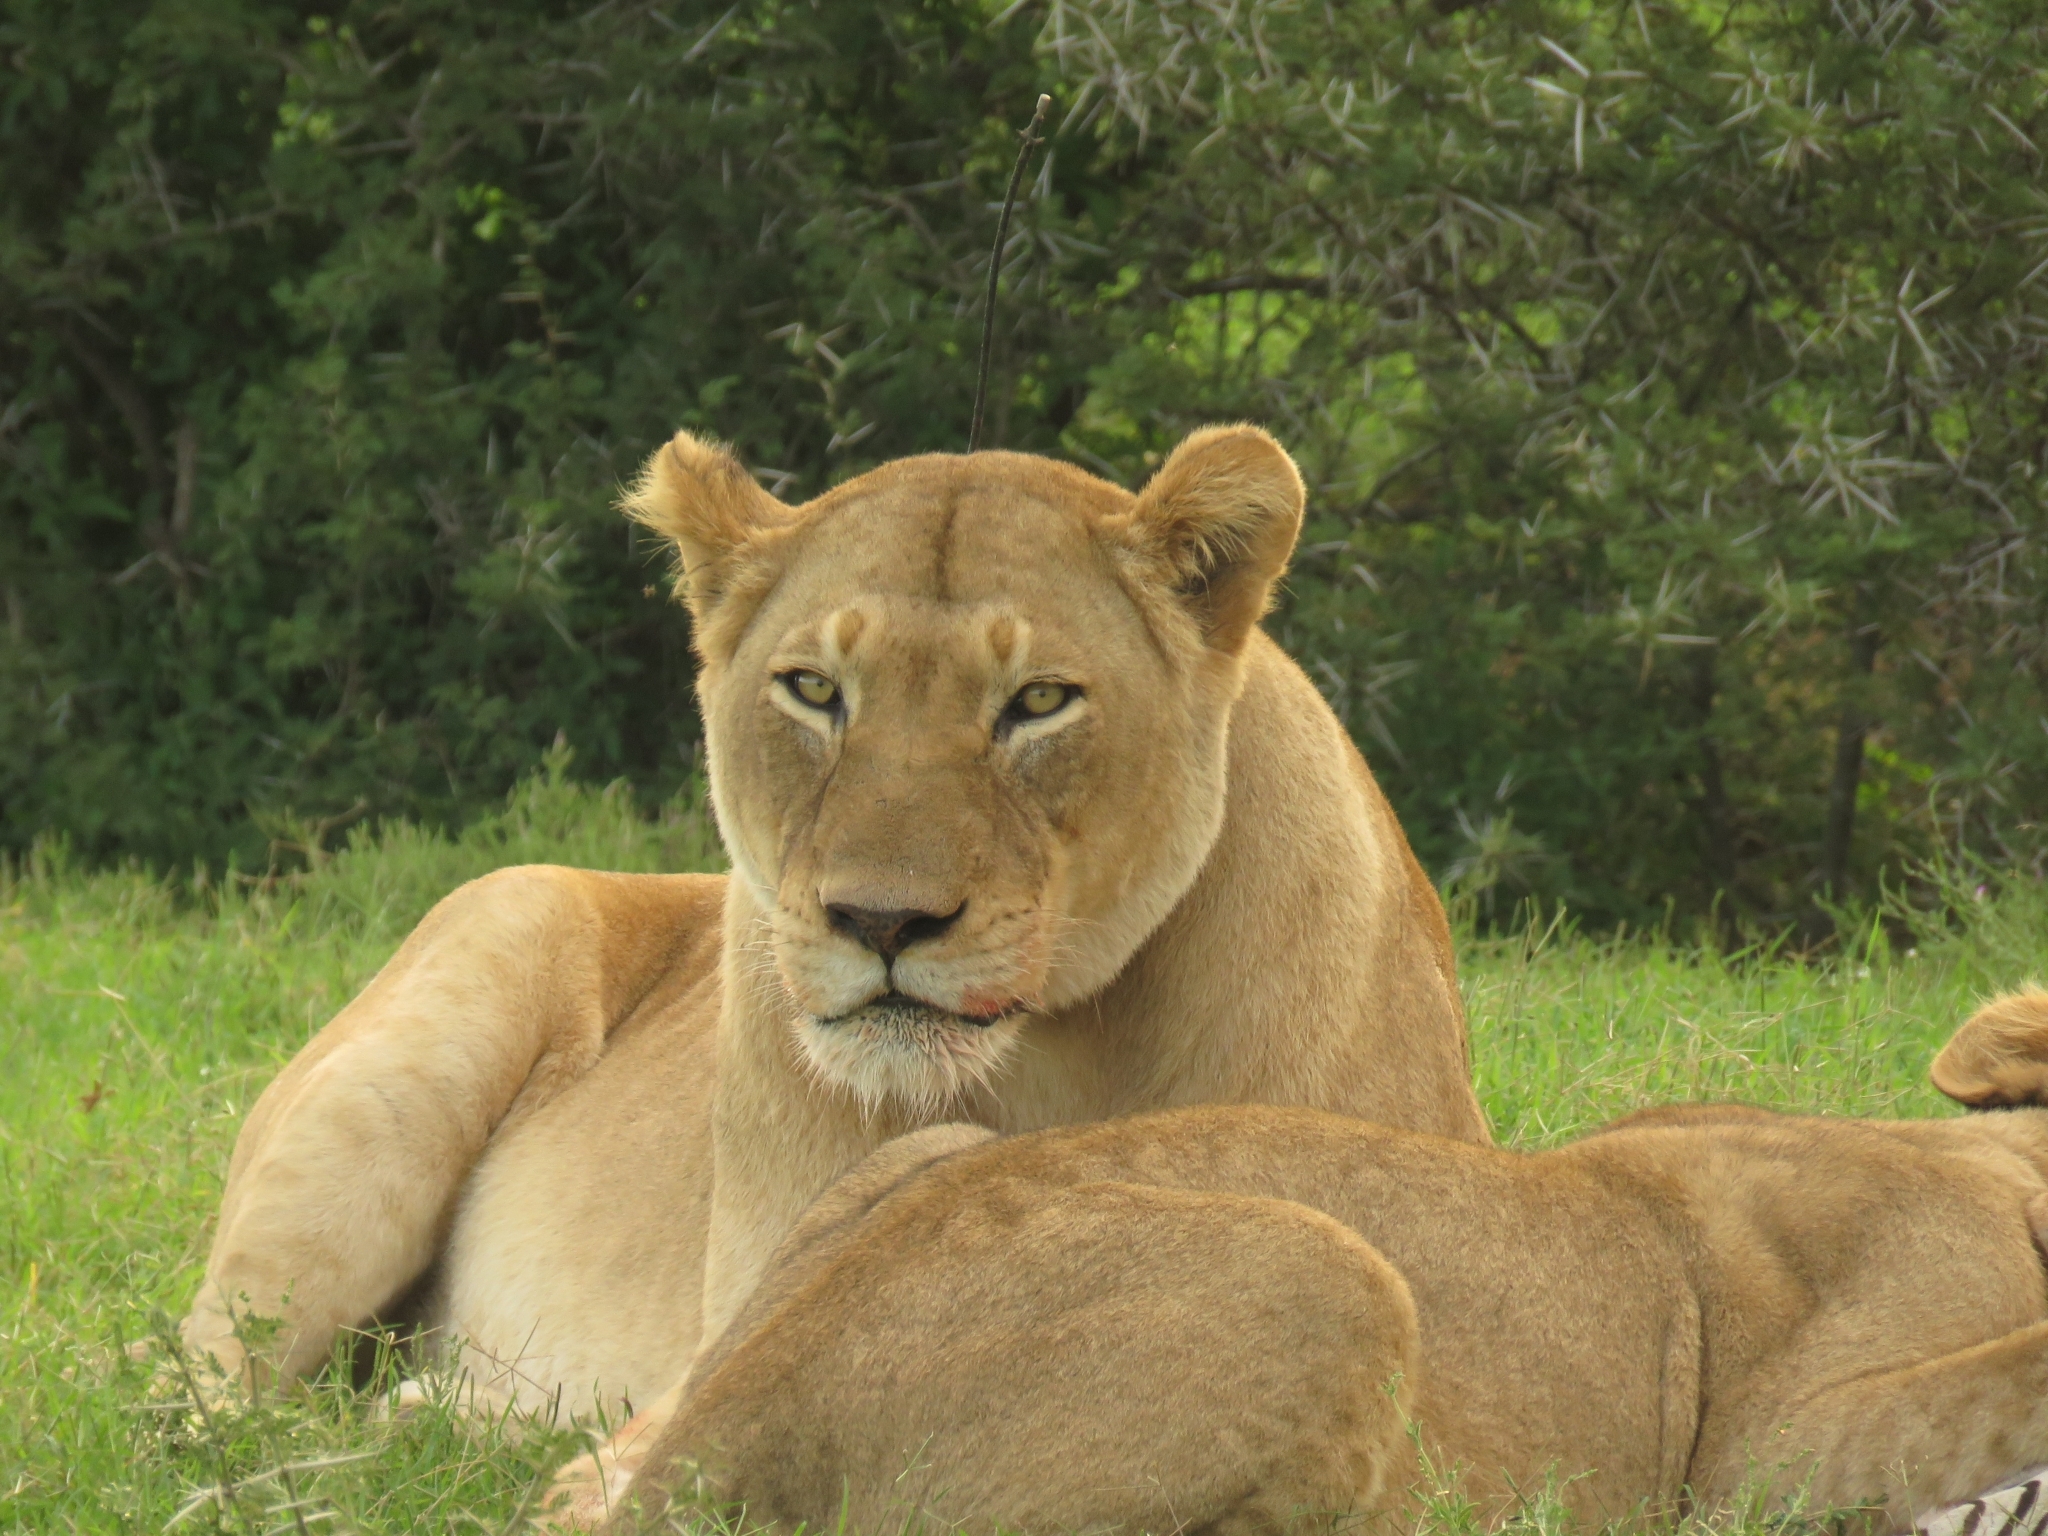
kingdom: Animalia
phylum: Chordata
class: Mammalia
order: Carnivora
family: Felidae
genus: Panthera
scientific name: Panthera leo
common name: Lion
